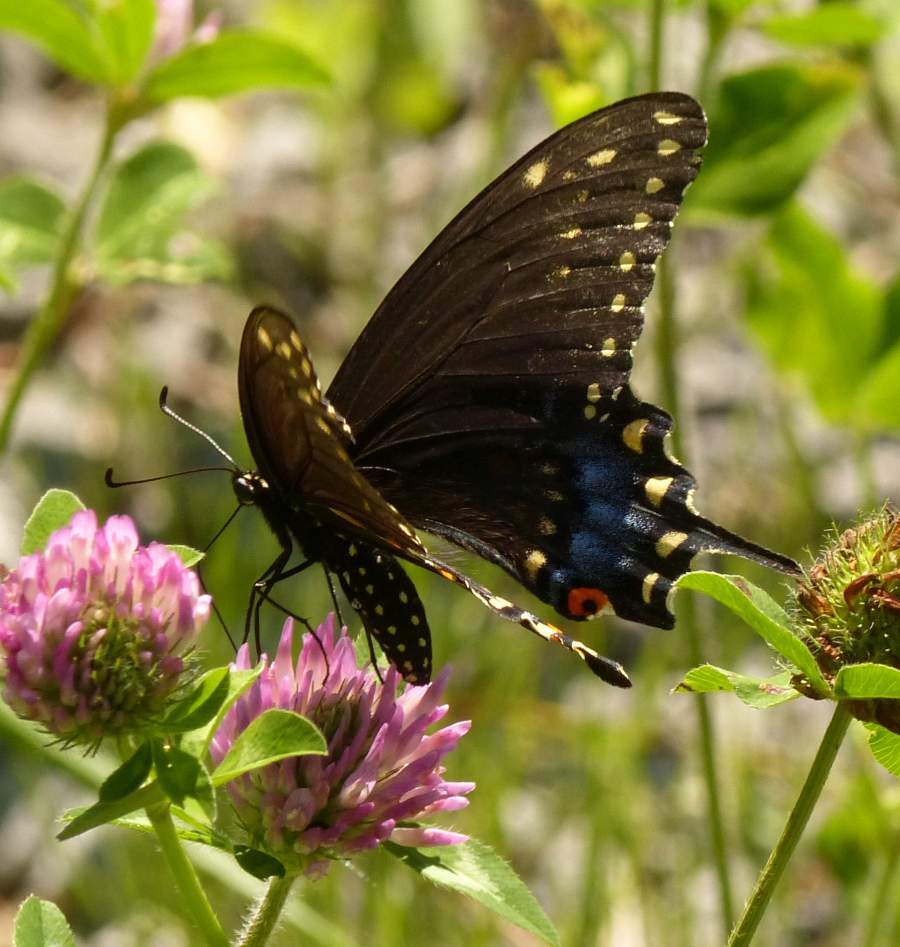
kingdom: Animalia
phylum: Arthropoda
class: Insecta
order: Lepidoptera
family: Papilionidae
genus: Papilio
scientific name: Papilio polyxenes
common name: Black swallowtail
